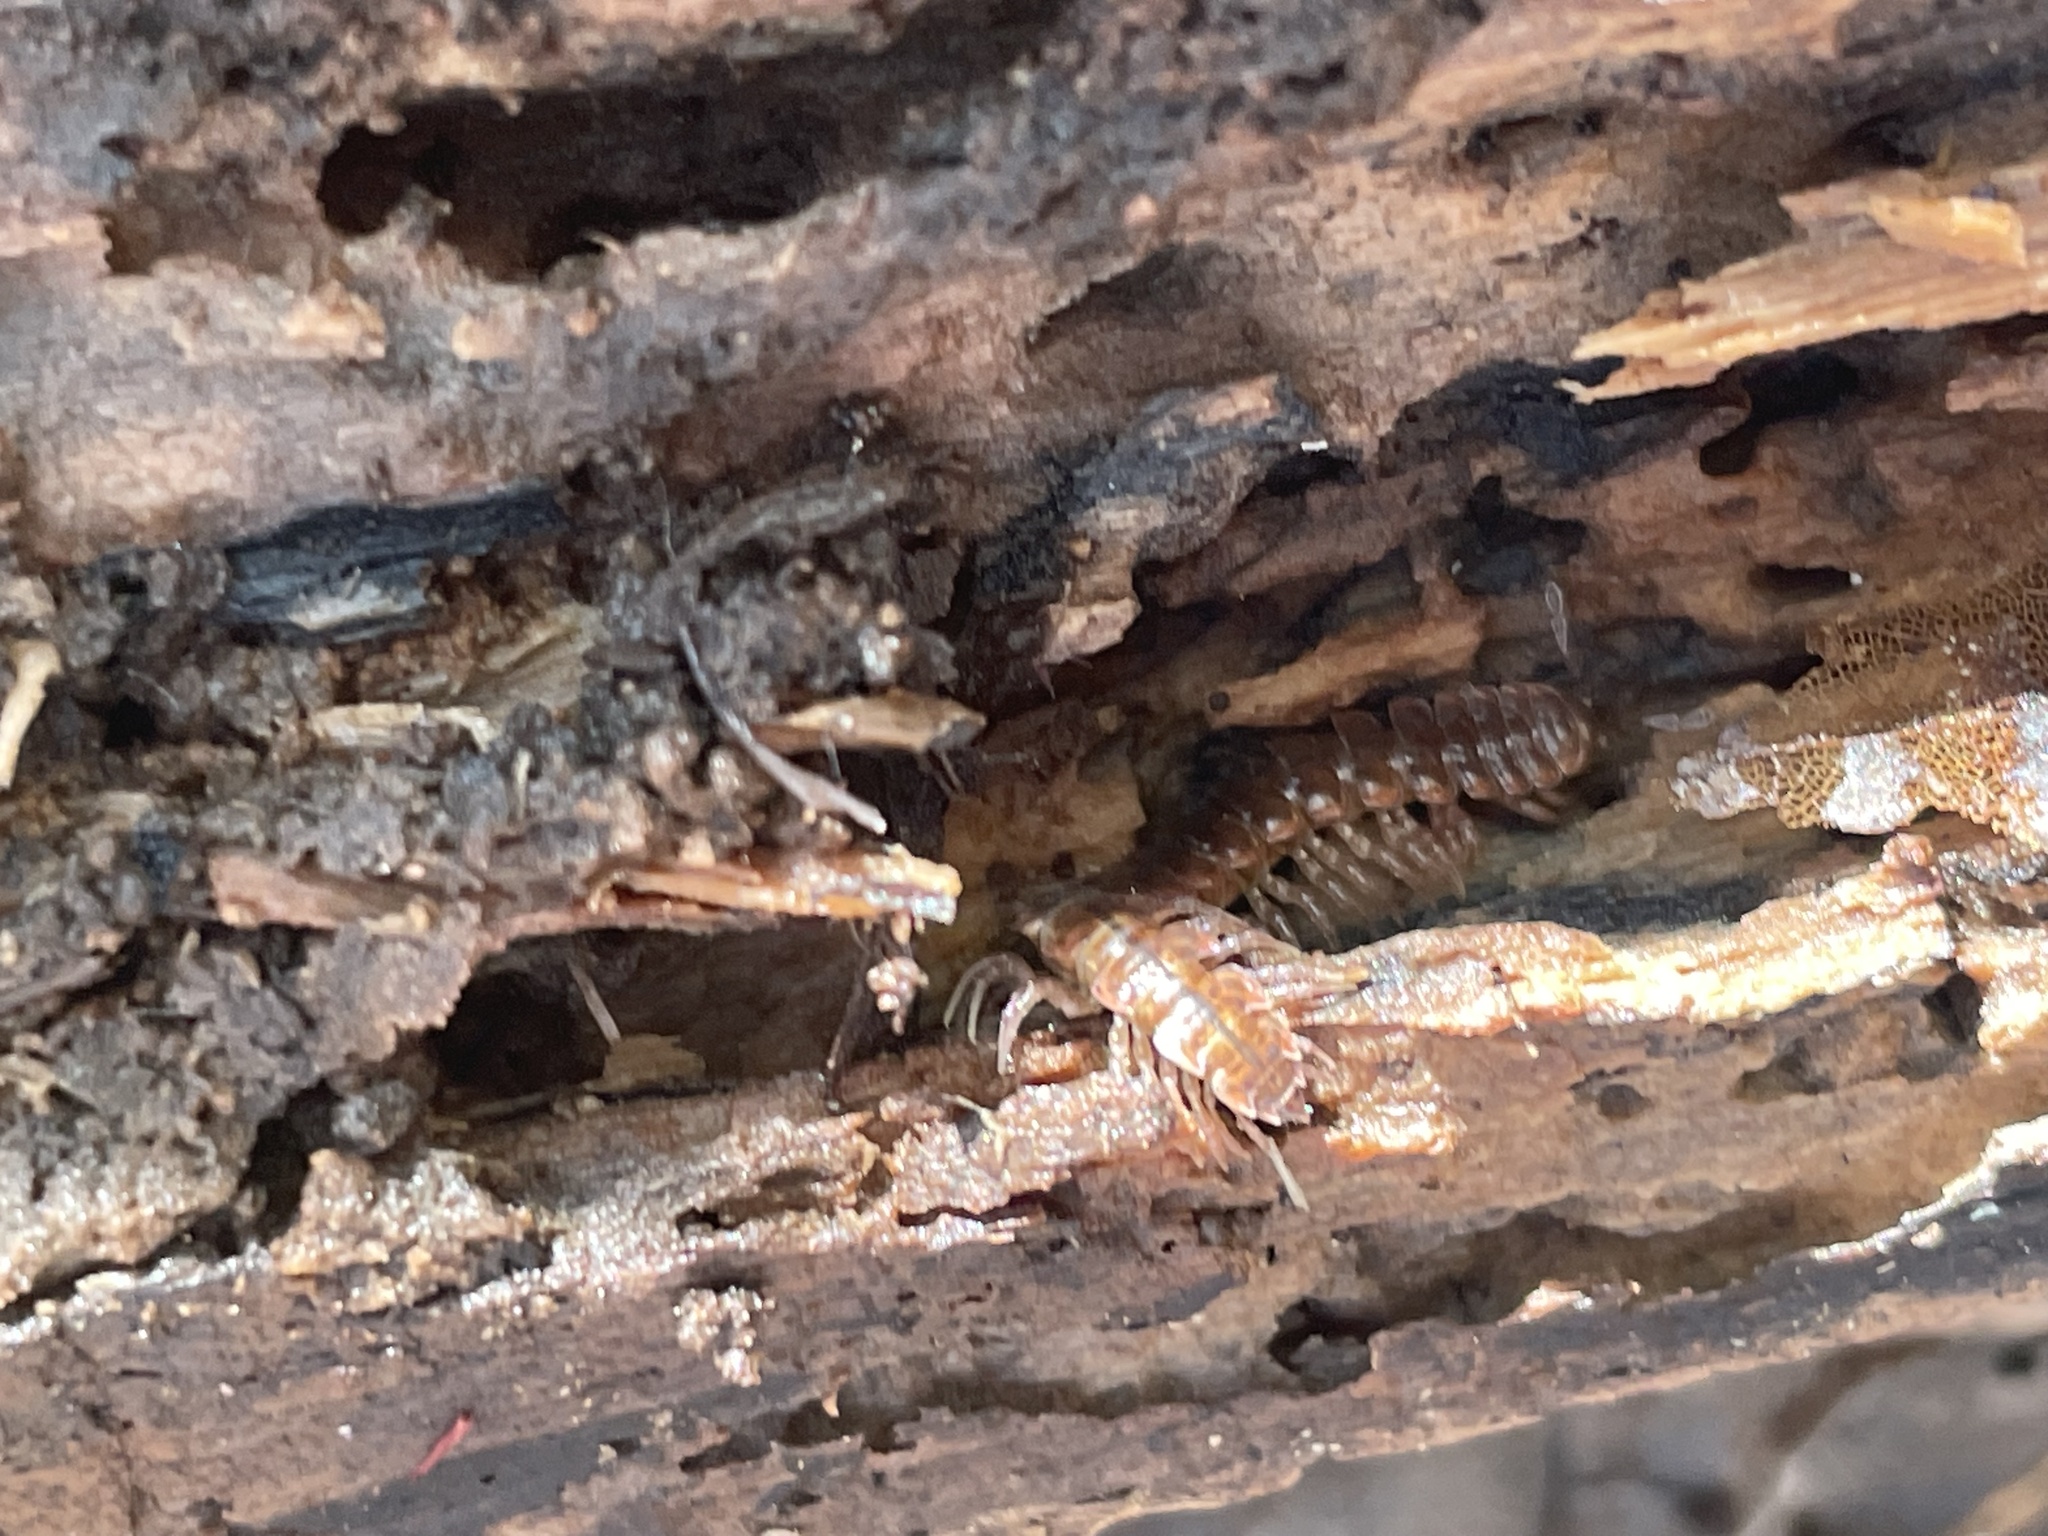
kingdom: Animalia
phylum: Arthropoda
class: Diplopoda
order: Polydesmida
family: Polydesmidae
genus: Pseudopolydesmus
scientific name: Pseudopolydesmus serratus
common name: Common pink flat-back millipede
